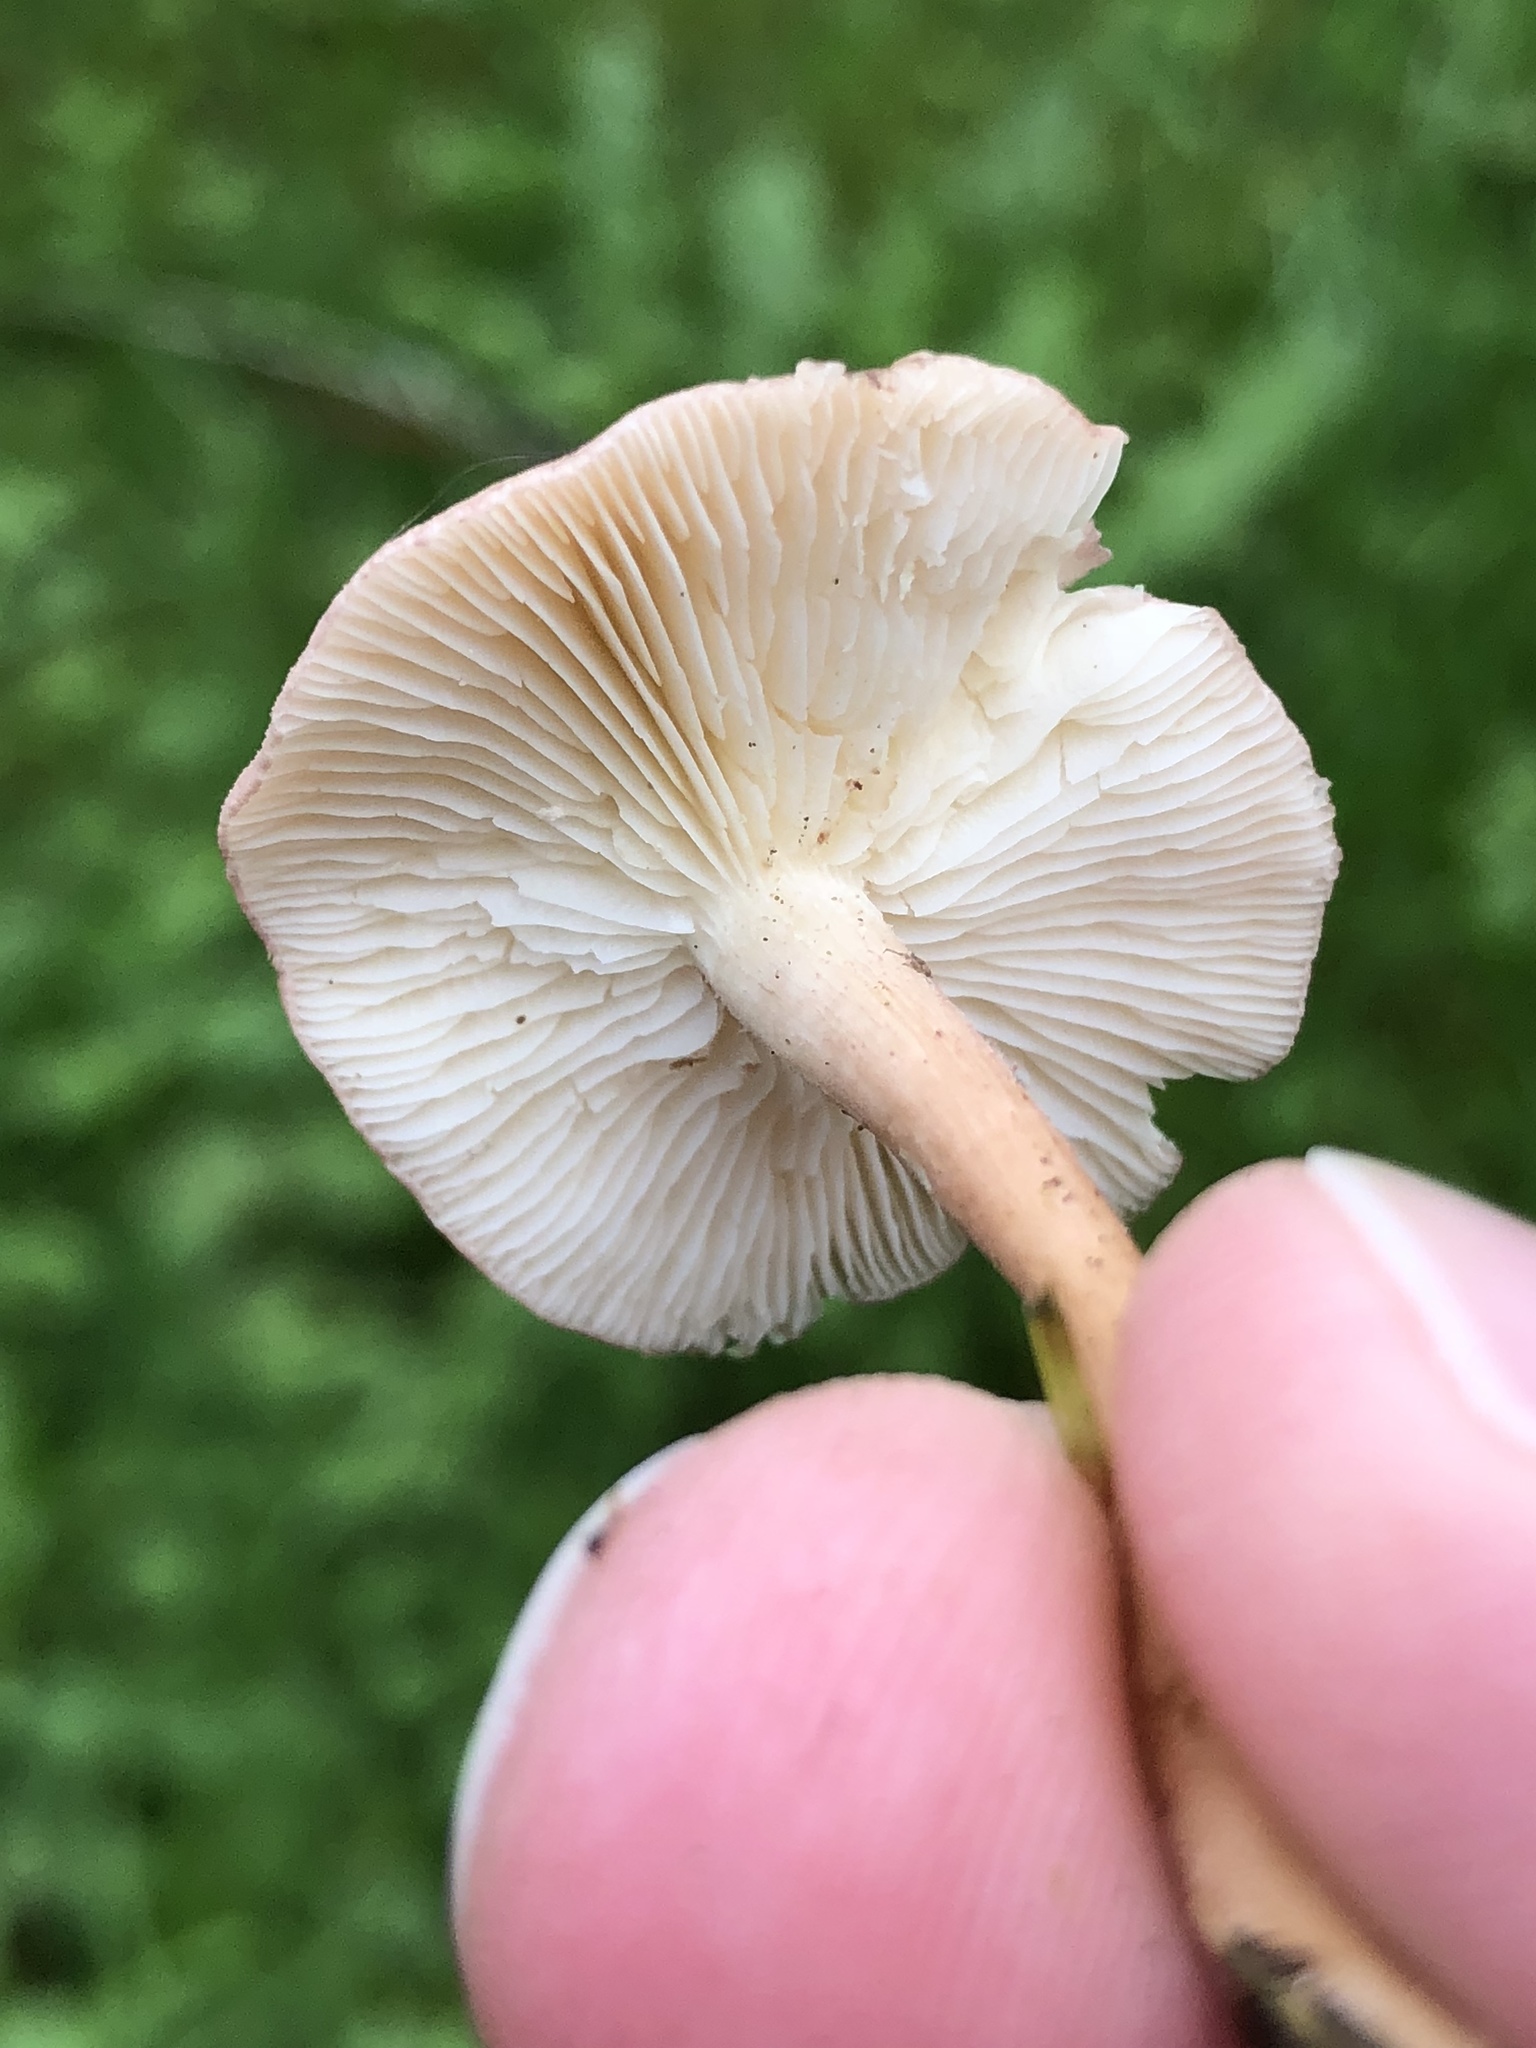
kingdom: Fungi
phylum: Basidiomycota
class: Agaricomycetes
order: Agaricales
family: Lyophyllaceae
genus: Calocybe
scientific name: Calocybe carnea
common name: Pink domecap
